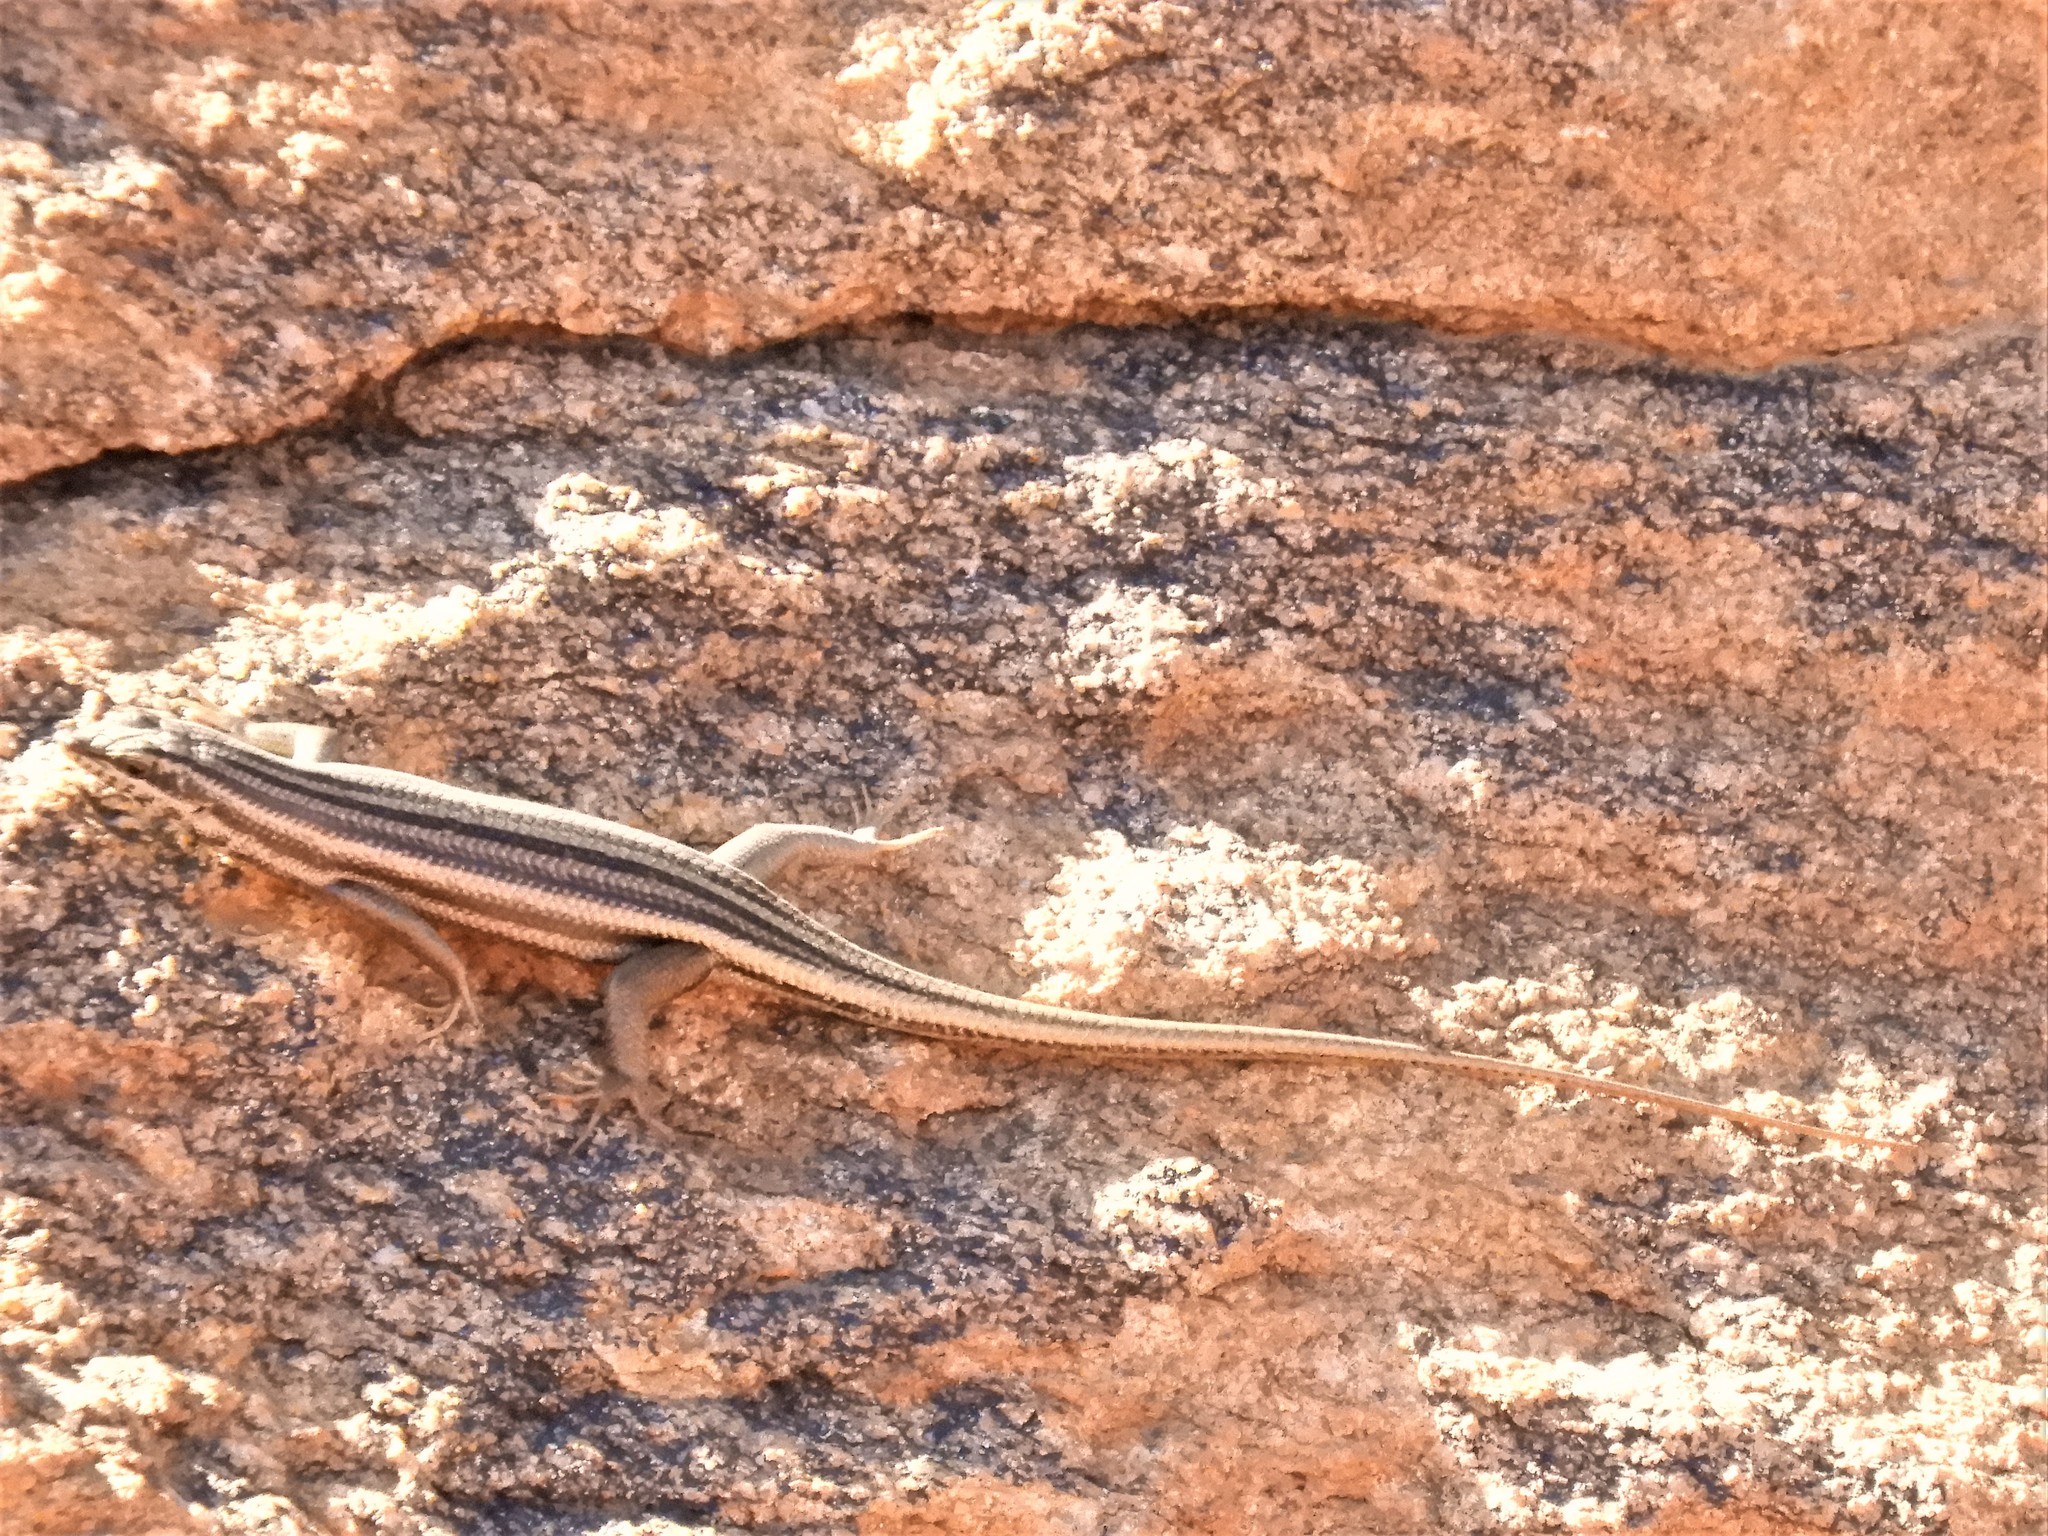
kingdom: Animalia
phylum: Chordata
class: Squamata
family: Scincidae
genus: Trachylepis
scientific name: Trachylepis sulcata
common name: Western rock skink
